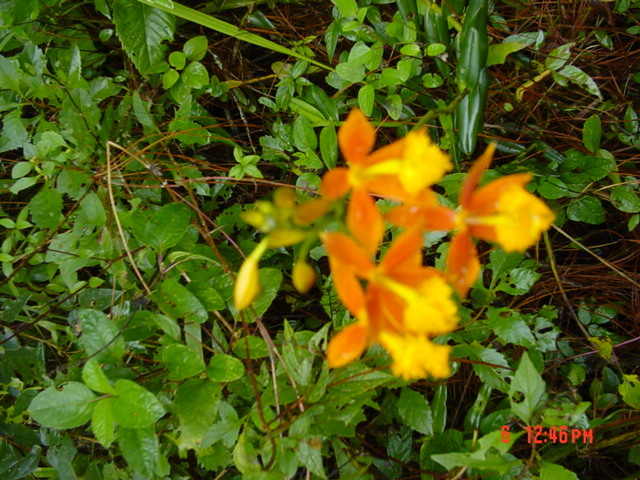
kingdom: Plantae
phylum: Tracheophyta
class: Liliopsida
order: Asparagales
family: Orchidaceae
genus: Epidendrum
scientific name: Epidendrum radicans
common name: Fire star orchid
